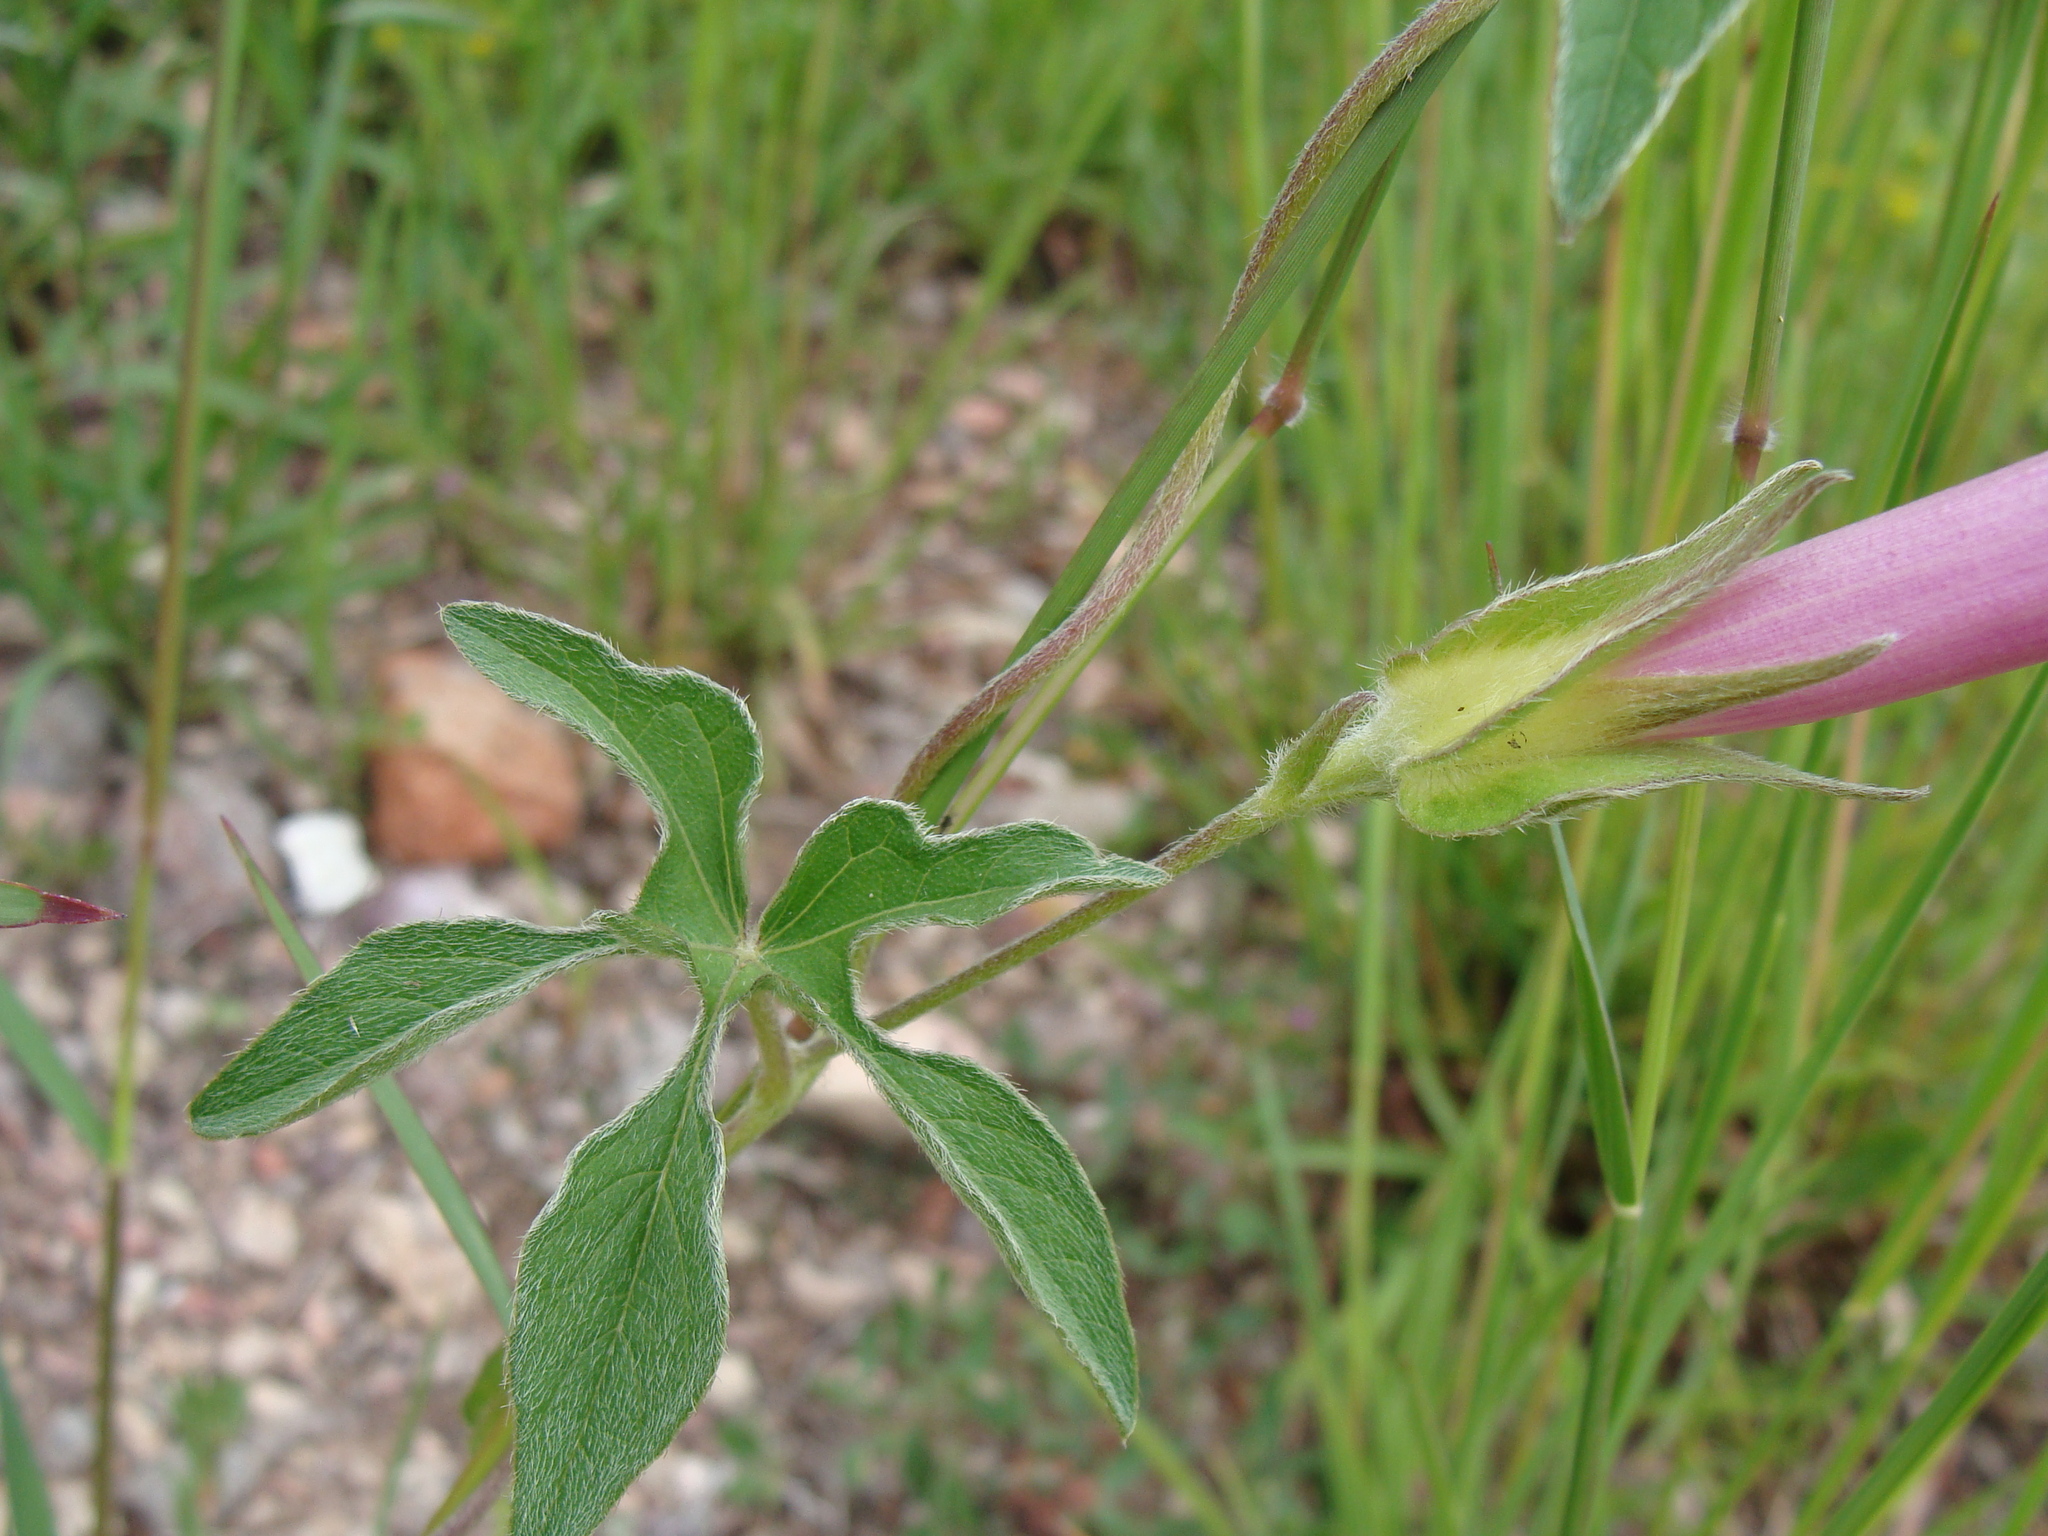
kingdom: Plantae
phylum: Tracheophyta
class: Magnoliopsida
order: Solanales
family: Convolvulaceae
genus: Ipomoea
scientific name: Ipomoea pubescens
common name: Silky morning-glory
